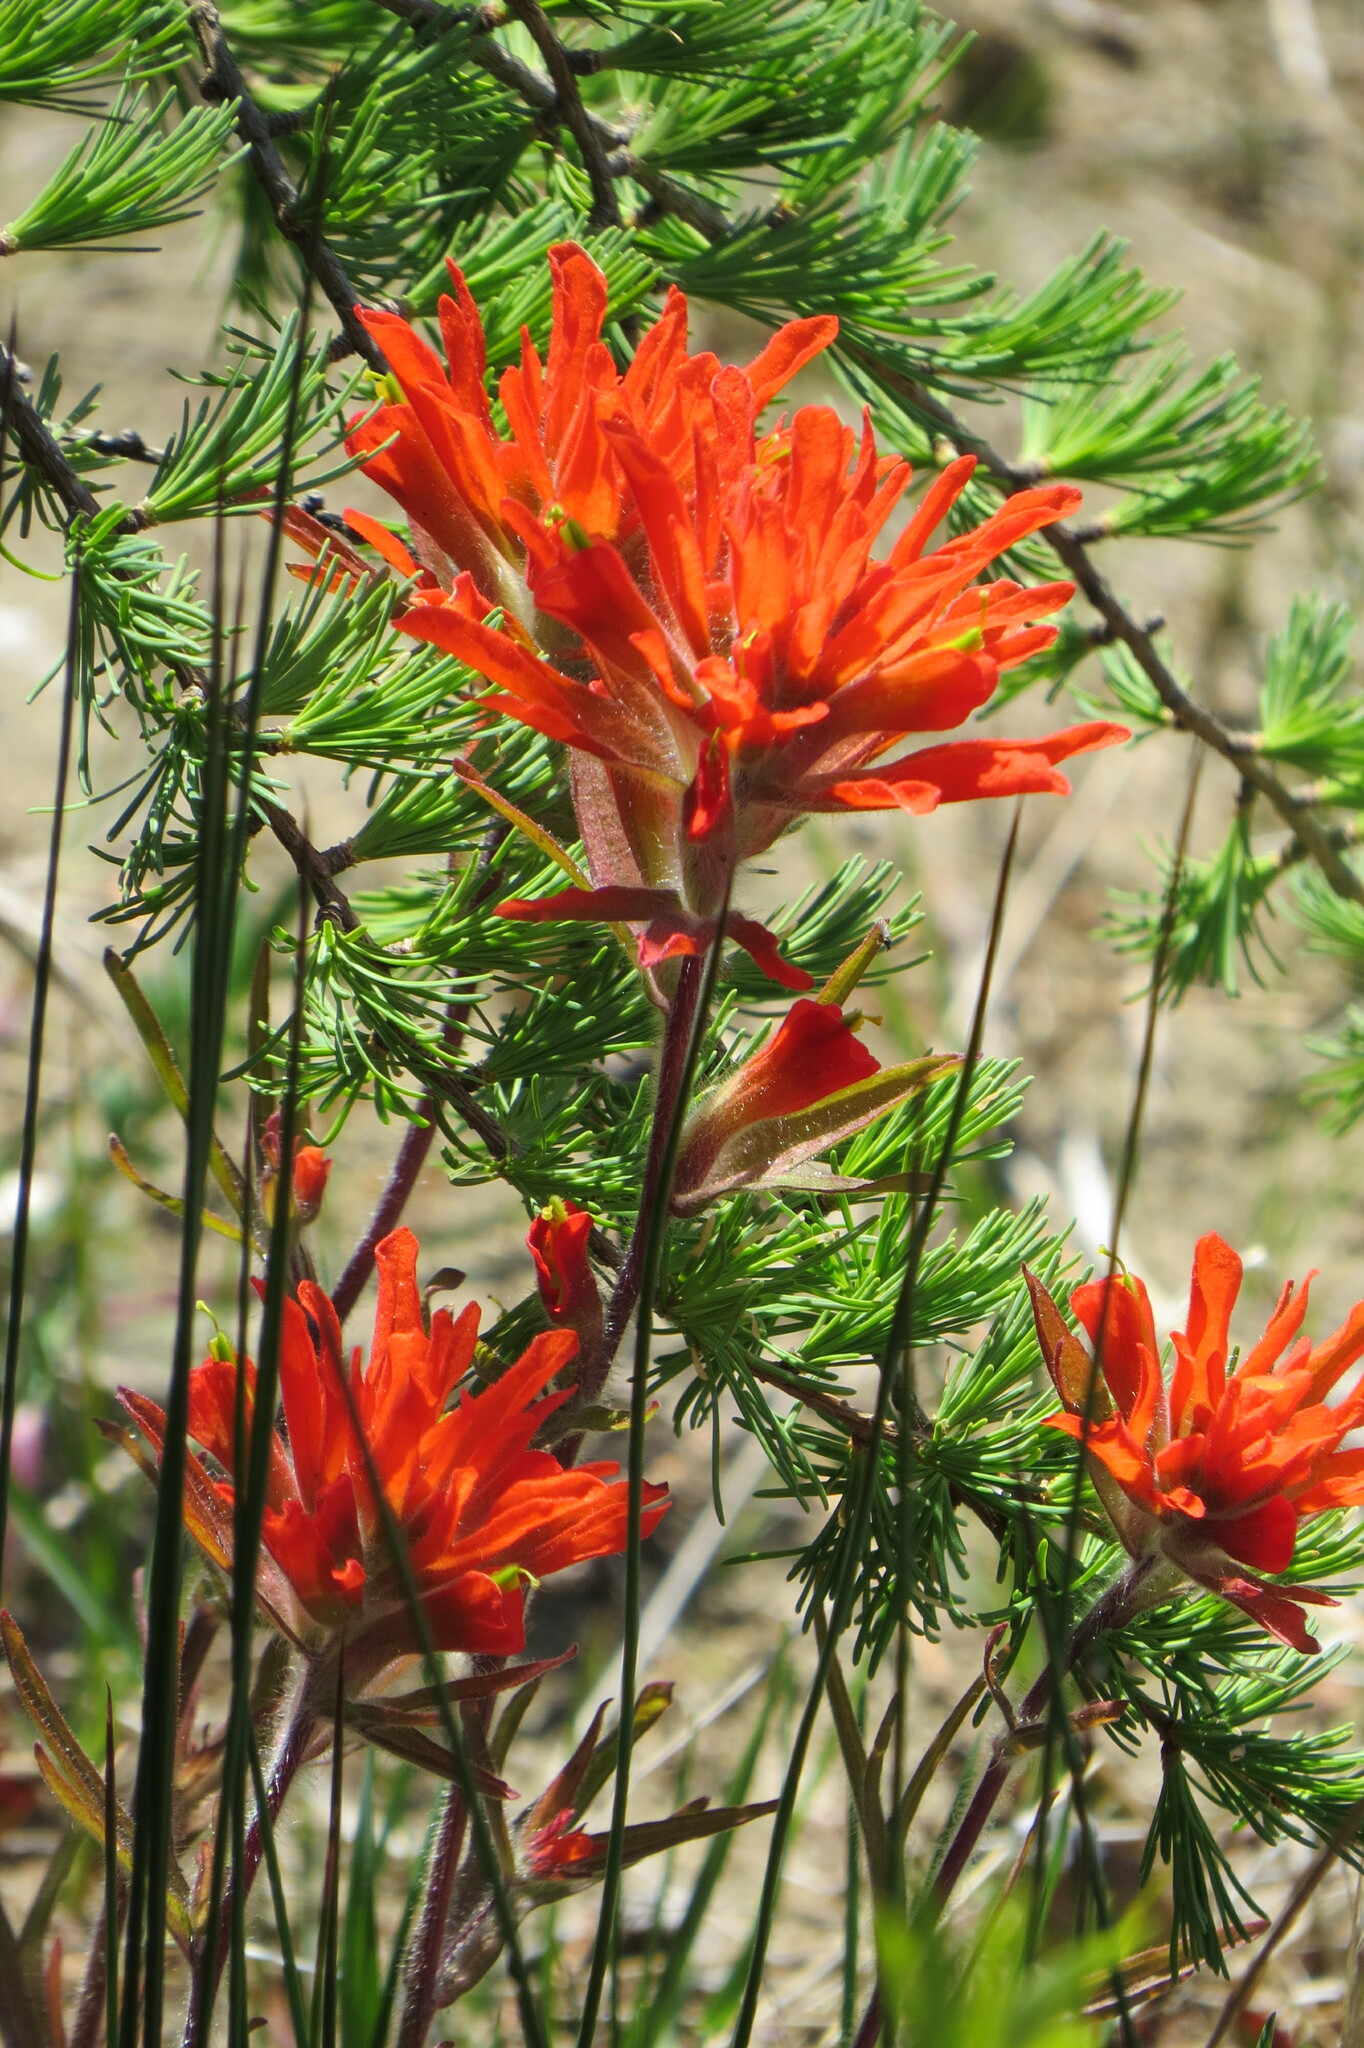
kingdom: Plantae
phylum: Tracheophyta
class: Magnoliopsida
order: Lamiales
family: Orobanchaceae
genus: Castilleja
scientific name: Castilleja coccinea
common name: Scarlet paintbrush
